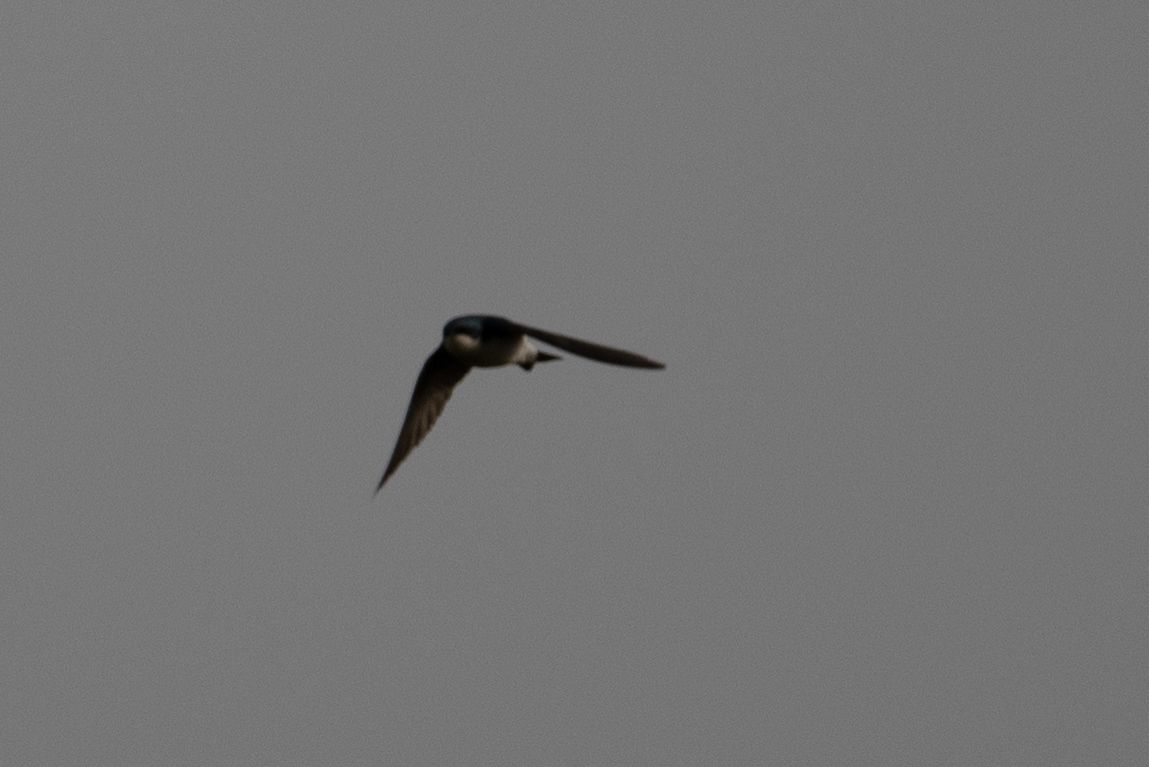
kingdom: Animalia
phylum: Chordata
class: Aves
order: Passeriformes
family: Hirundinidae
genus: Tachycineta
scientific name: Tachycineta bicolor
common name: Tree swallow
